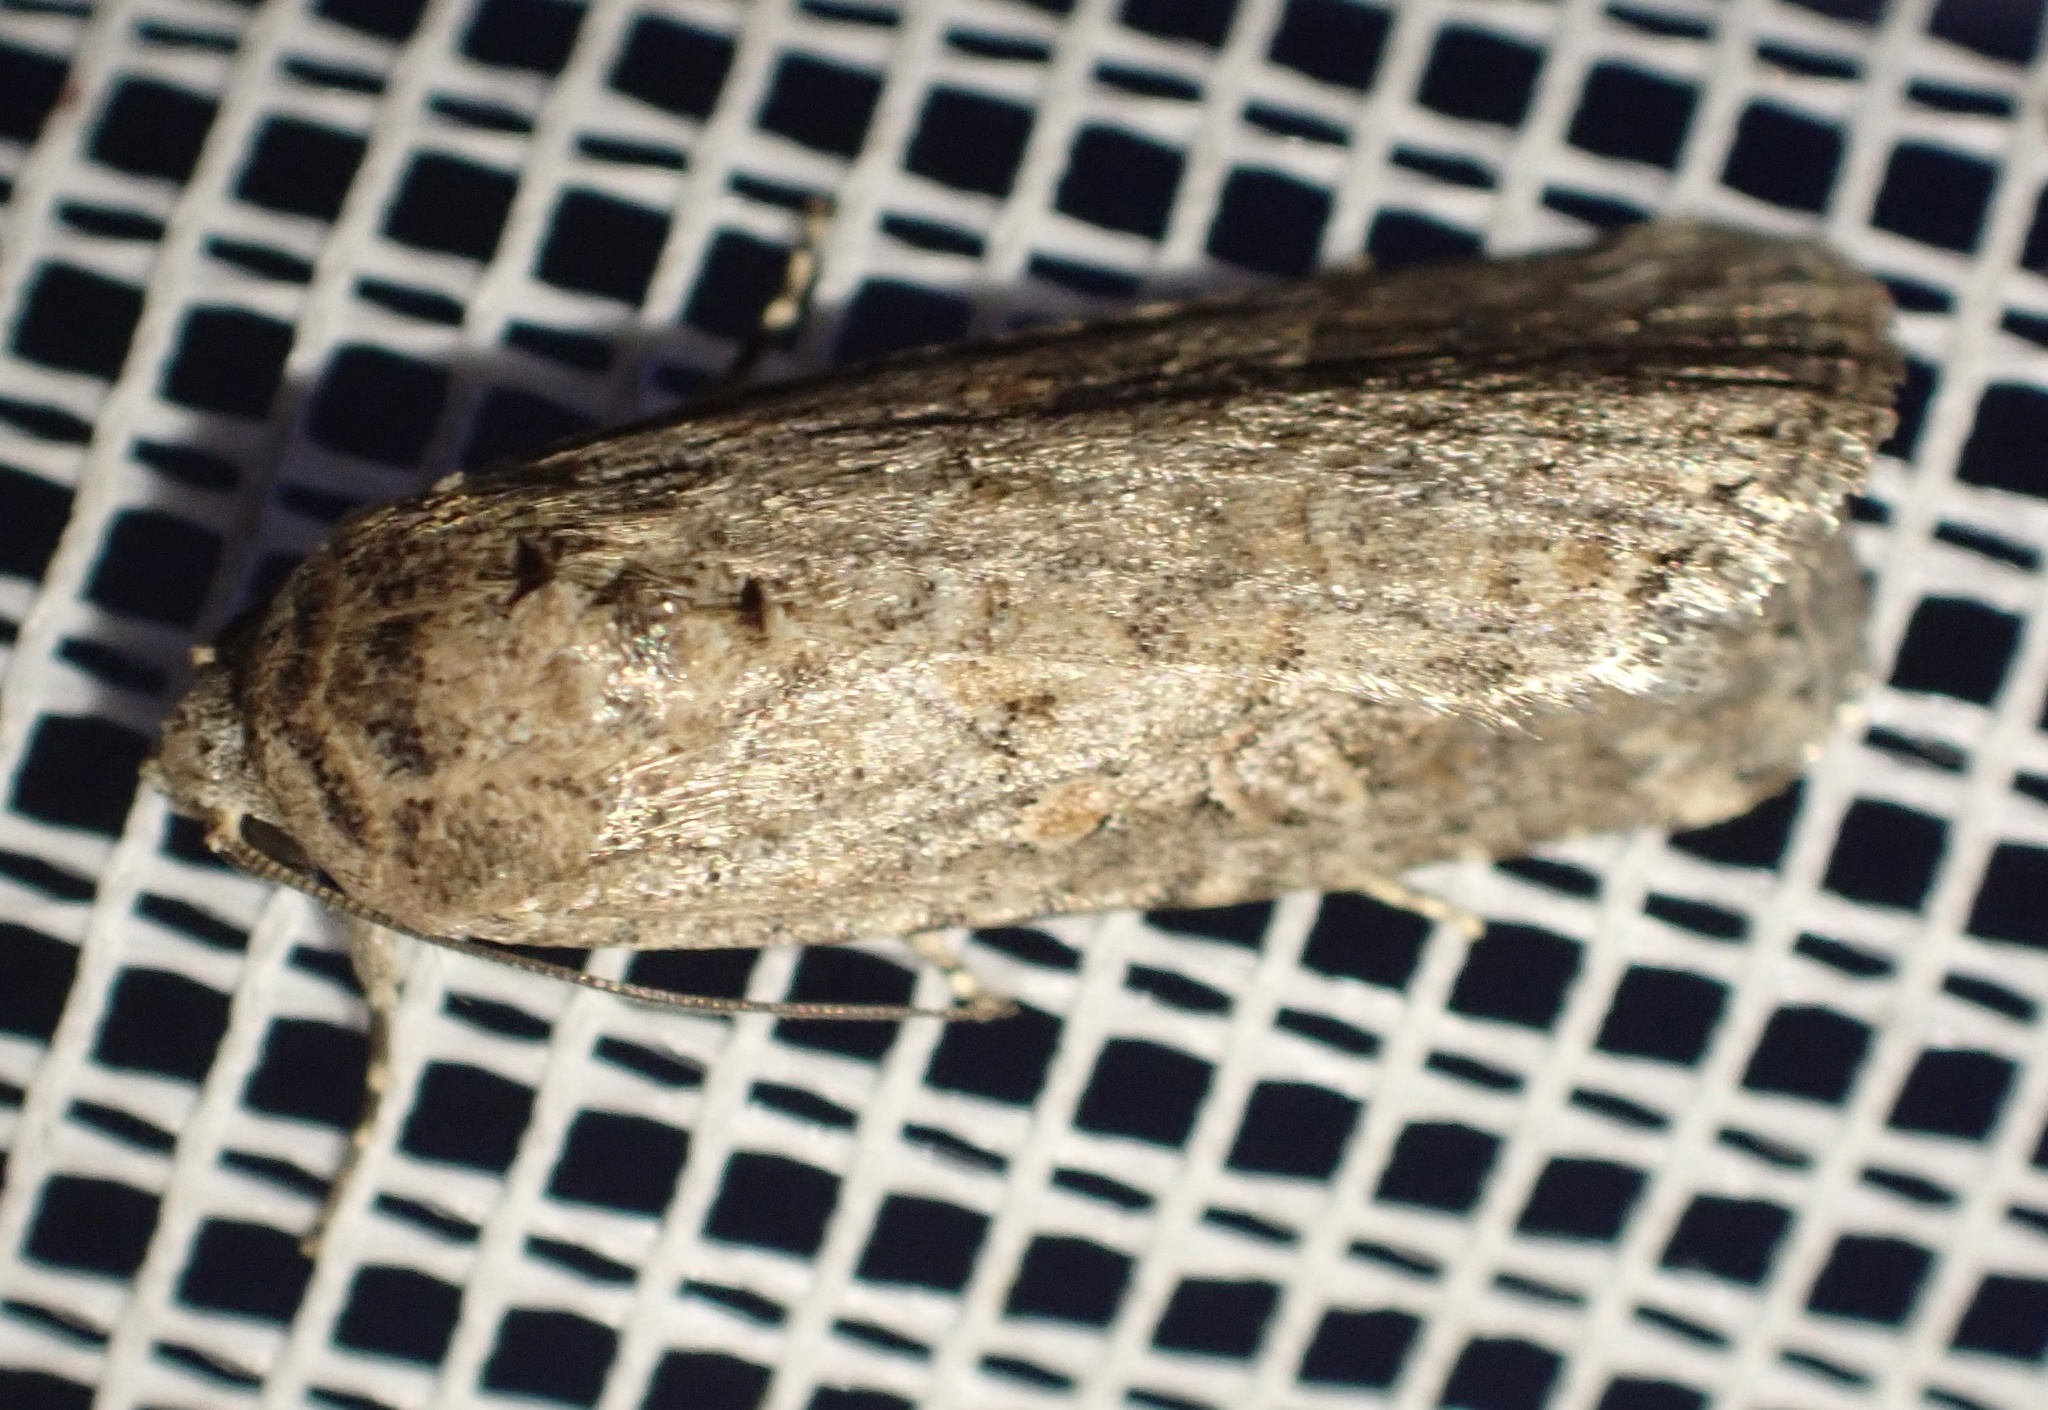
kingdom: Animalia
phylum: Arthropoda
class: Insecta
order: Lepidoptera
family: Noctuidae
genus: Spodoptera
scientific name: Spodoptera exigua
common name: Beet armyworm
